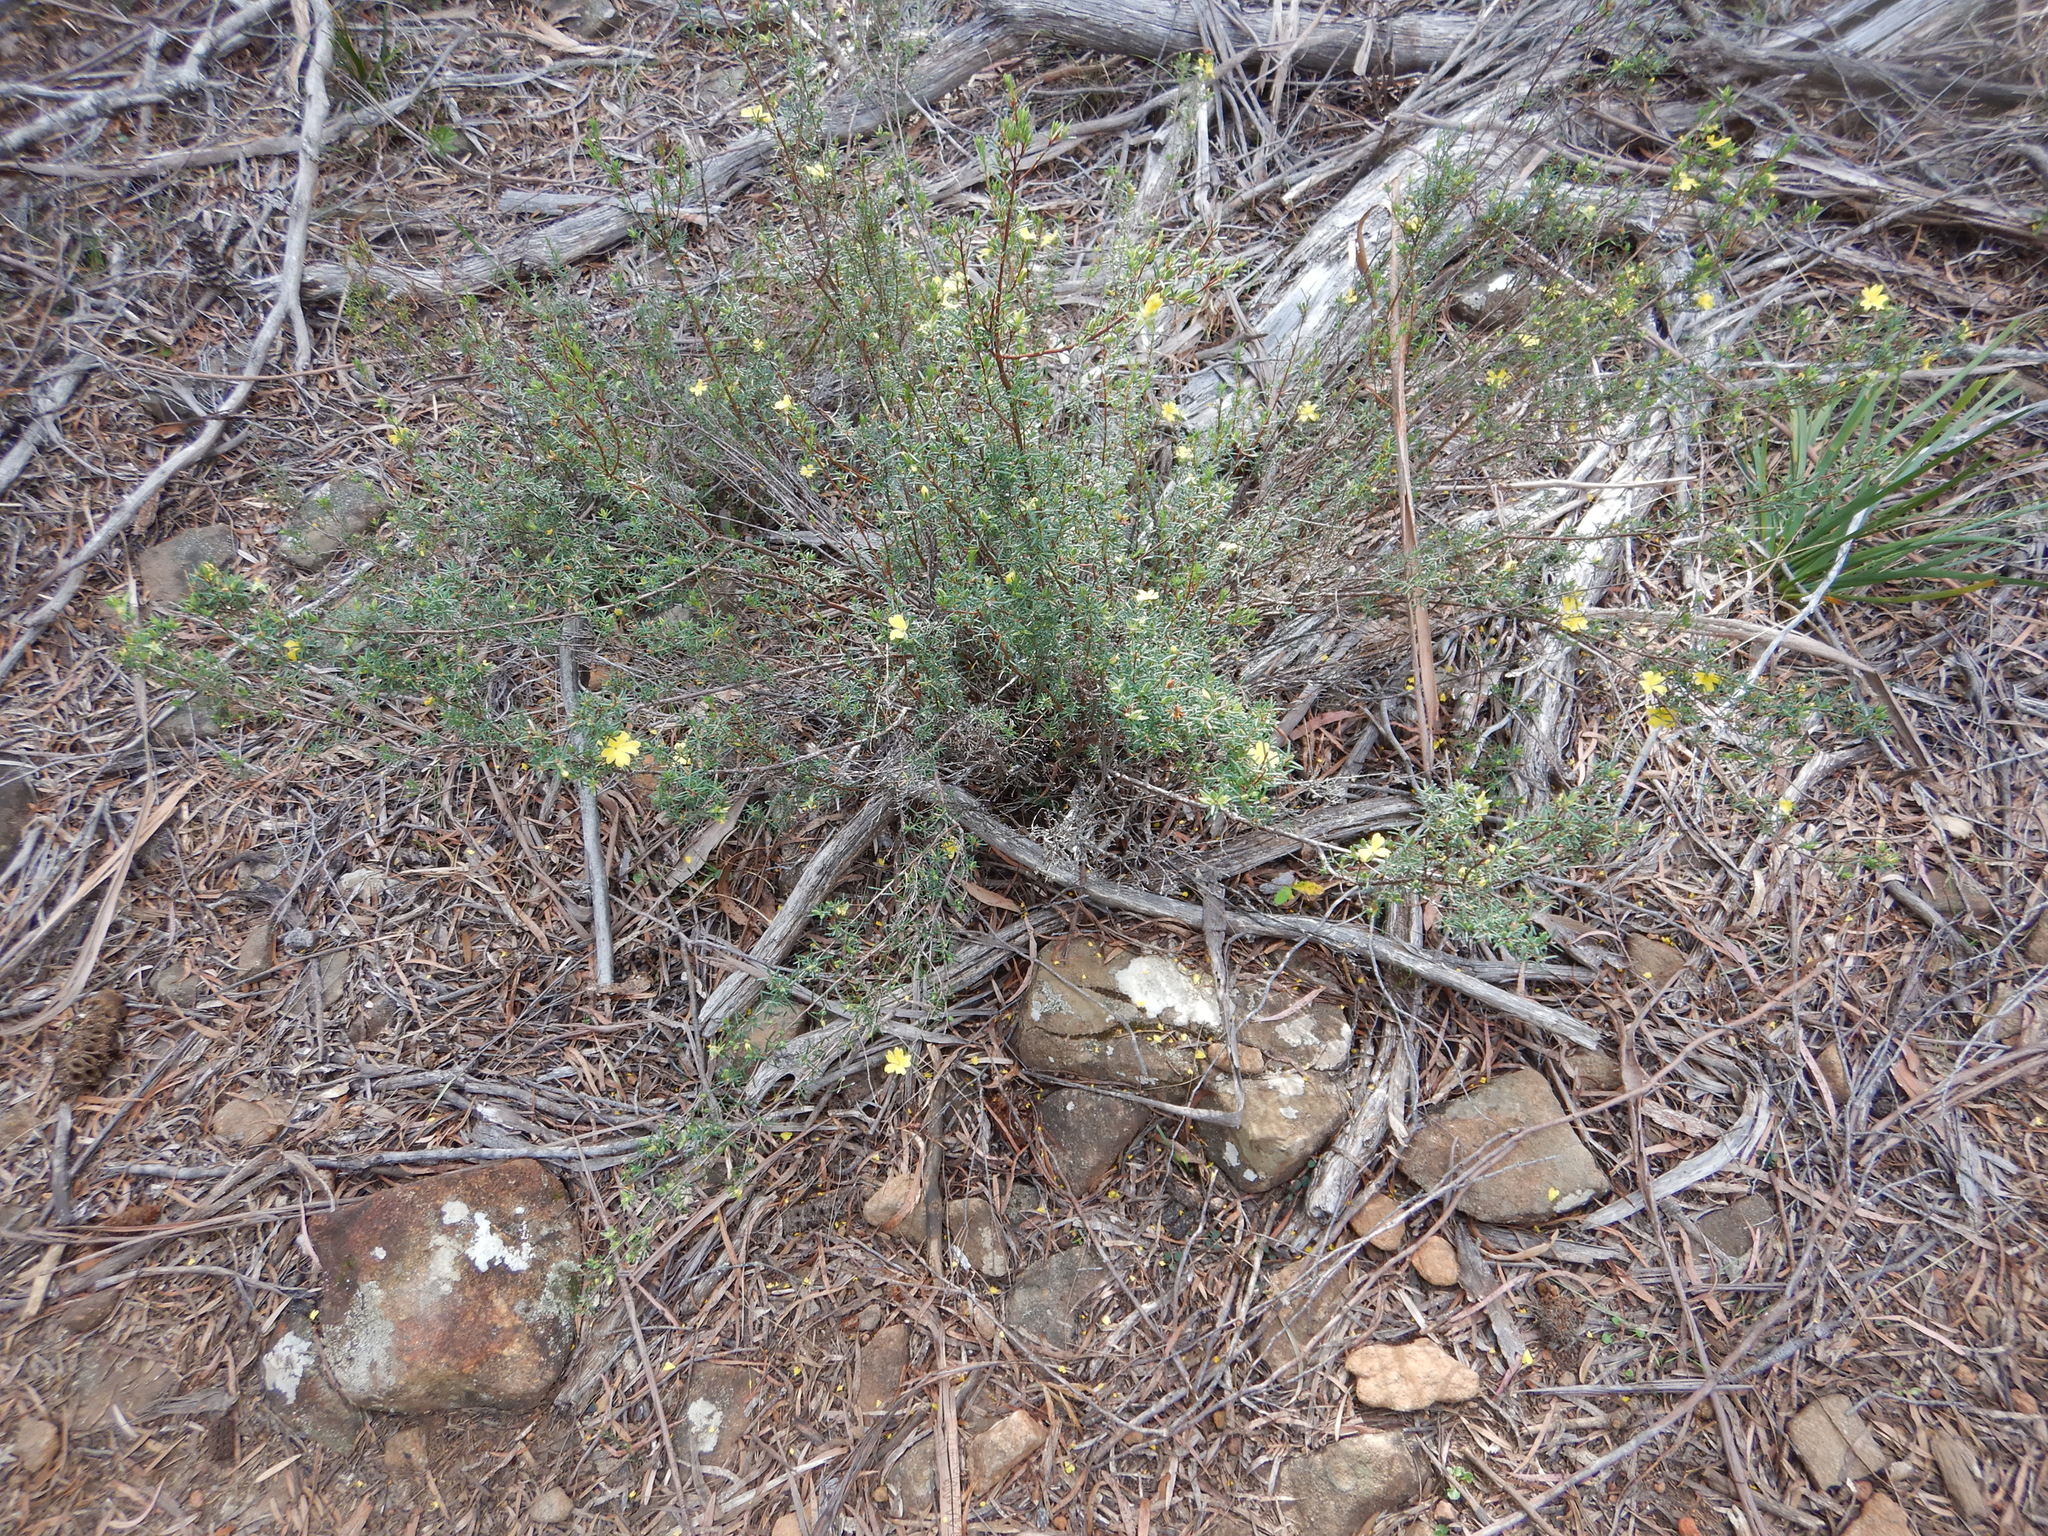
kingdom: Plantae
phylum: Tracheophyta
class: Magnoliopsida
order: Dilleniales
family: Dilleniaceae
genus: Hibbertia
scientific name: Hibbertia riparia
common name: Erect guinea-flower
